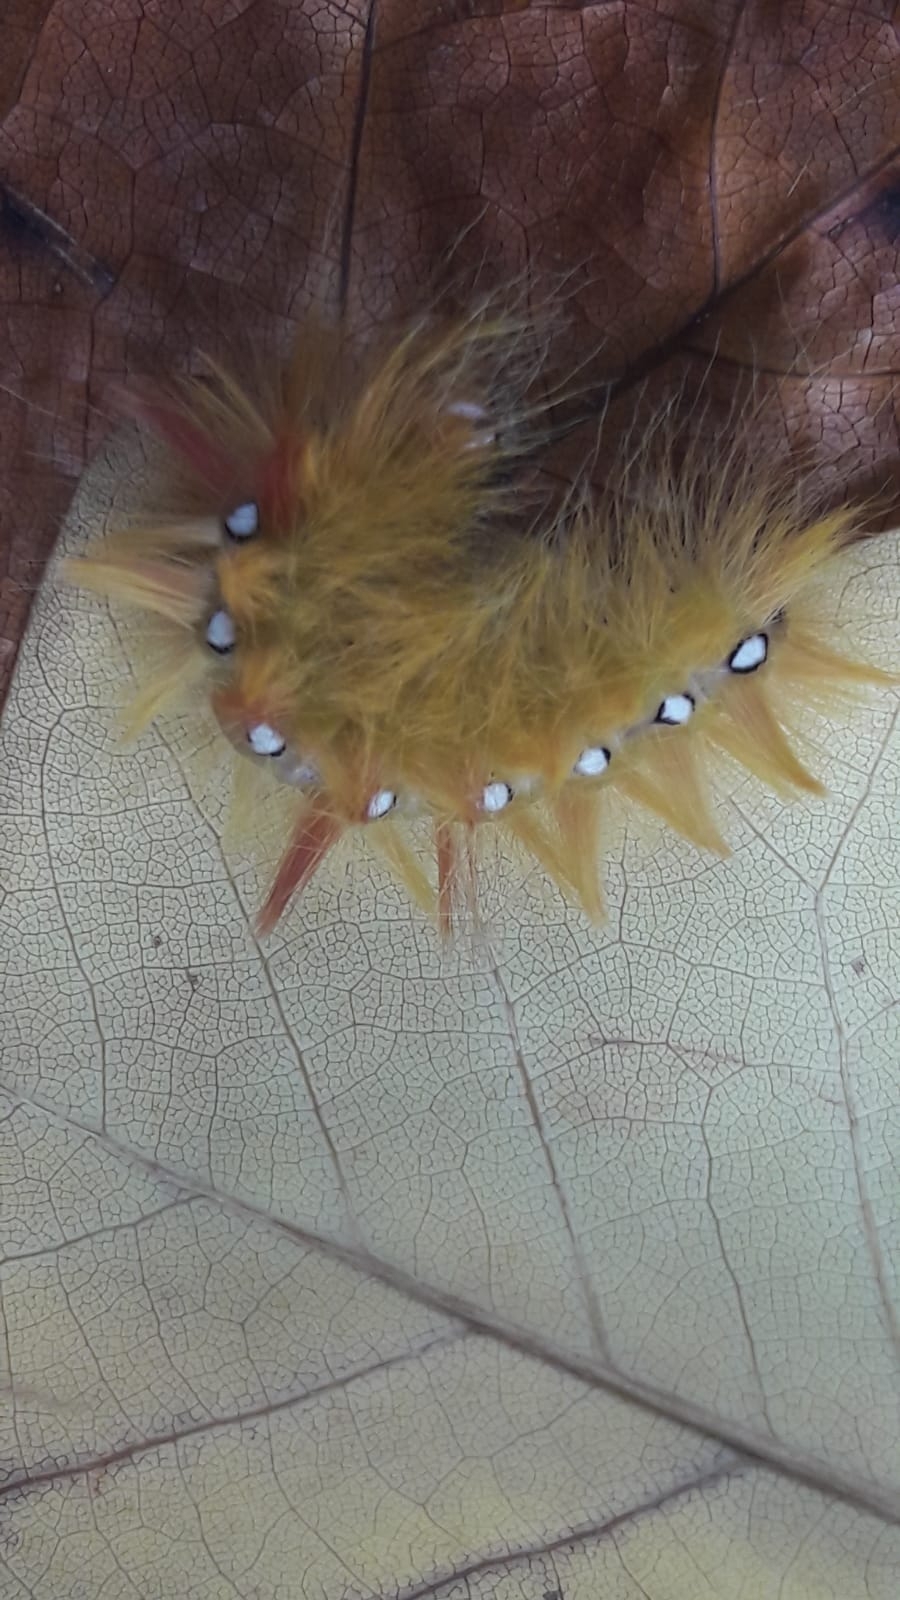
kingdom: Animalia
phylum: Arthropoda
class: Insecta
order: Lepidoptera
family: Noctuidae
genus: Acronicta
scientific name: Acronicta aceris
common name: Sycamore
